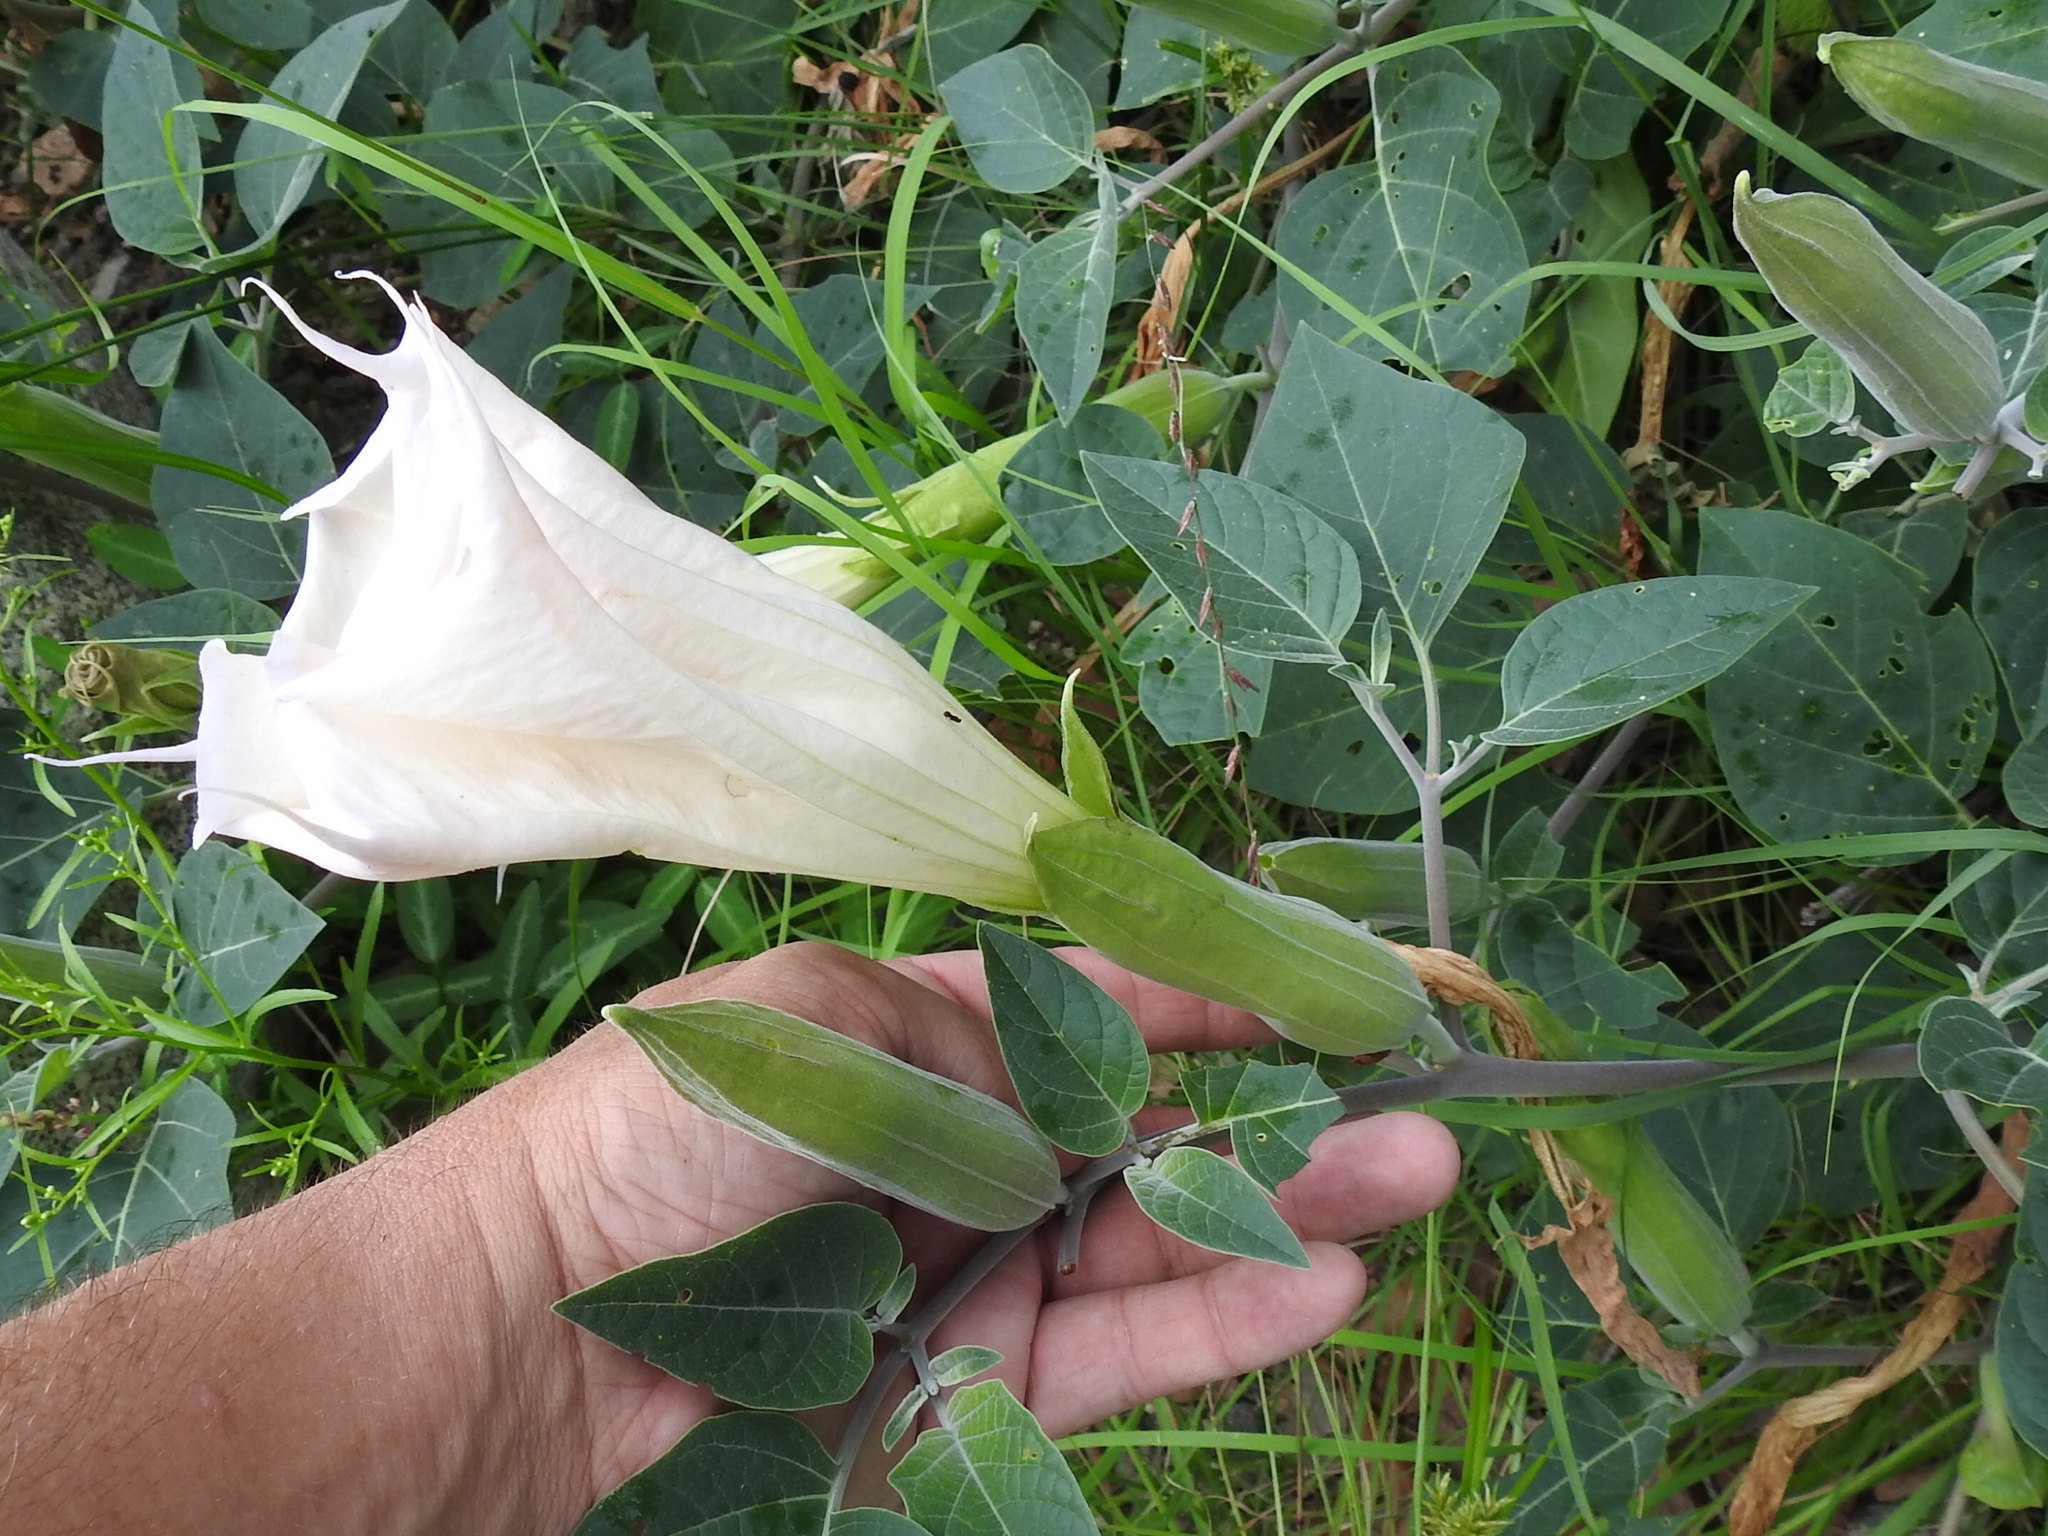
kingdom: Plantae
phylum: Tracheophyta
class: Magnoliopsida
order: Solanales
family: Solanaceae
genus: Datura
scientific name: Datura wrightii
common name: Sacred thorn-apple
